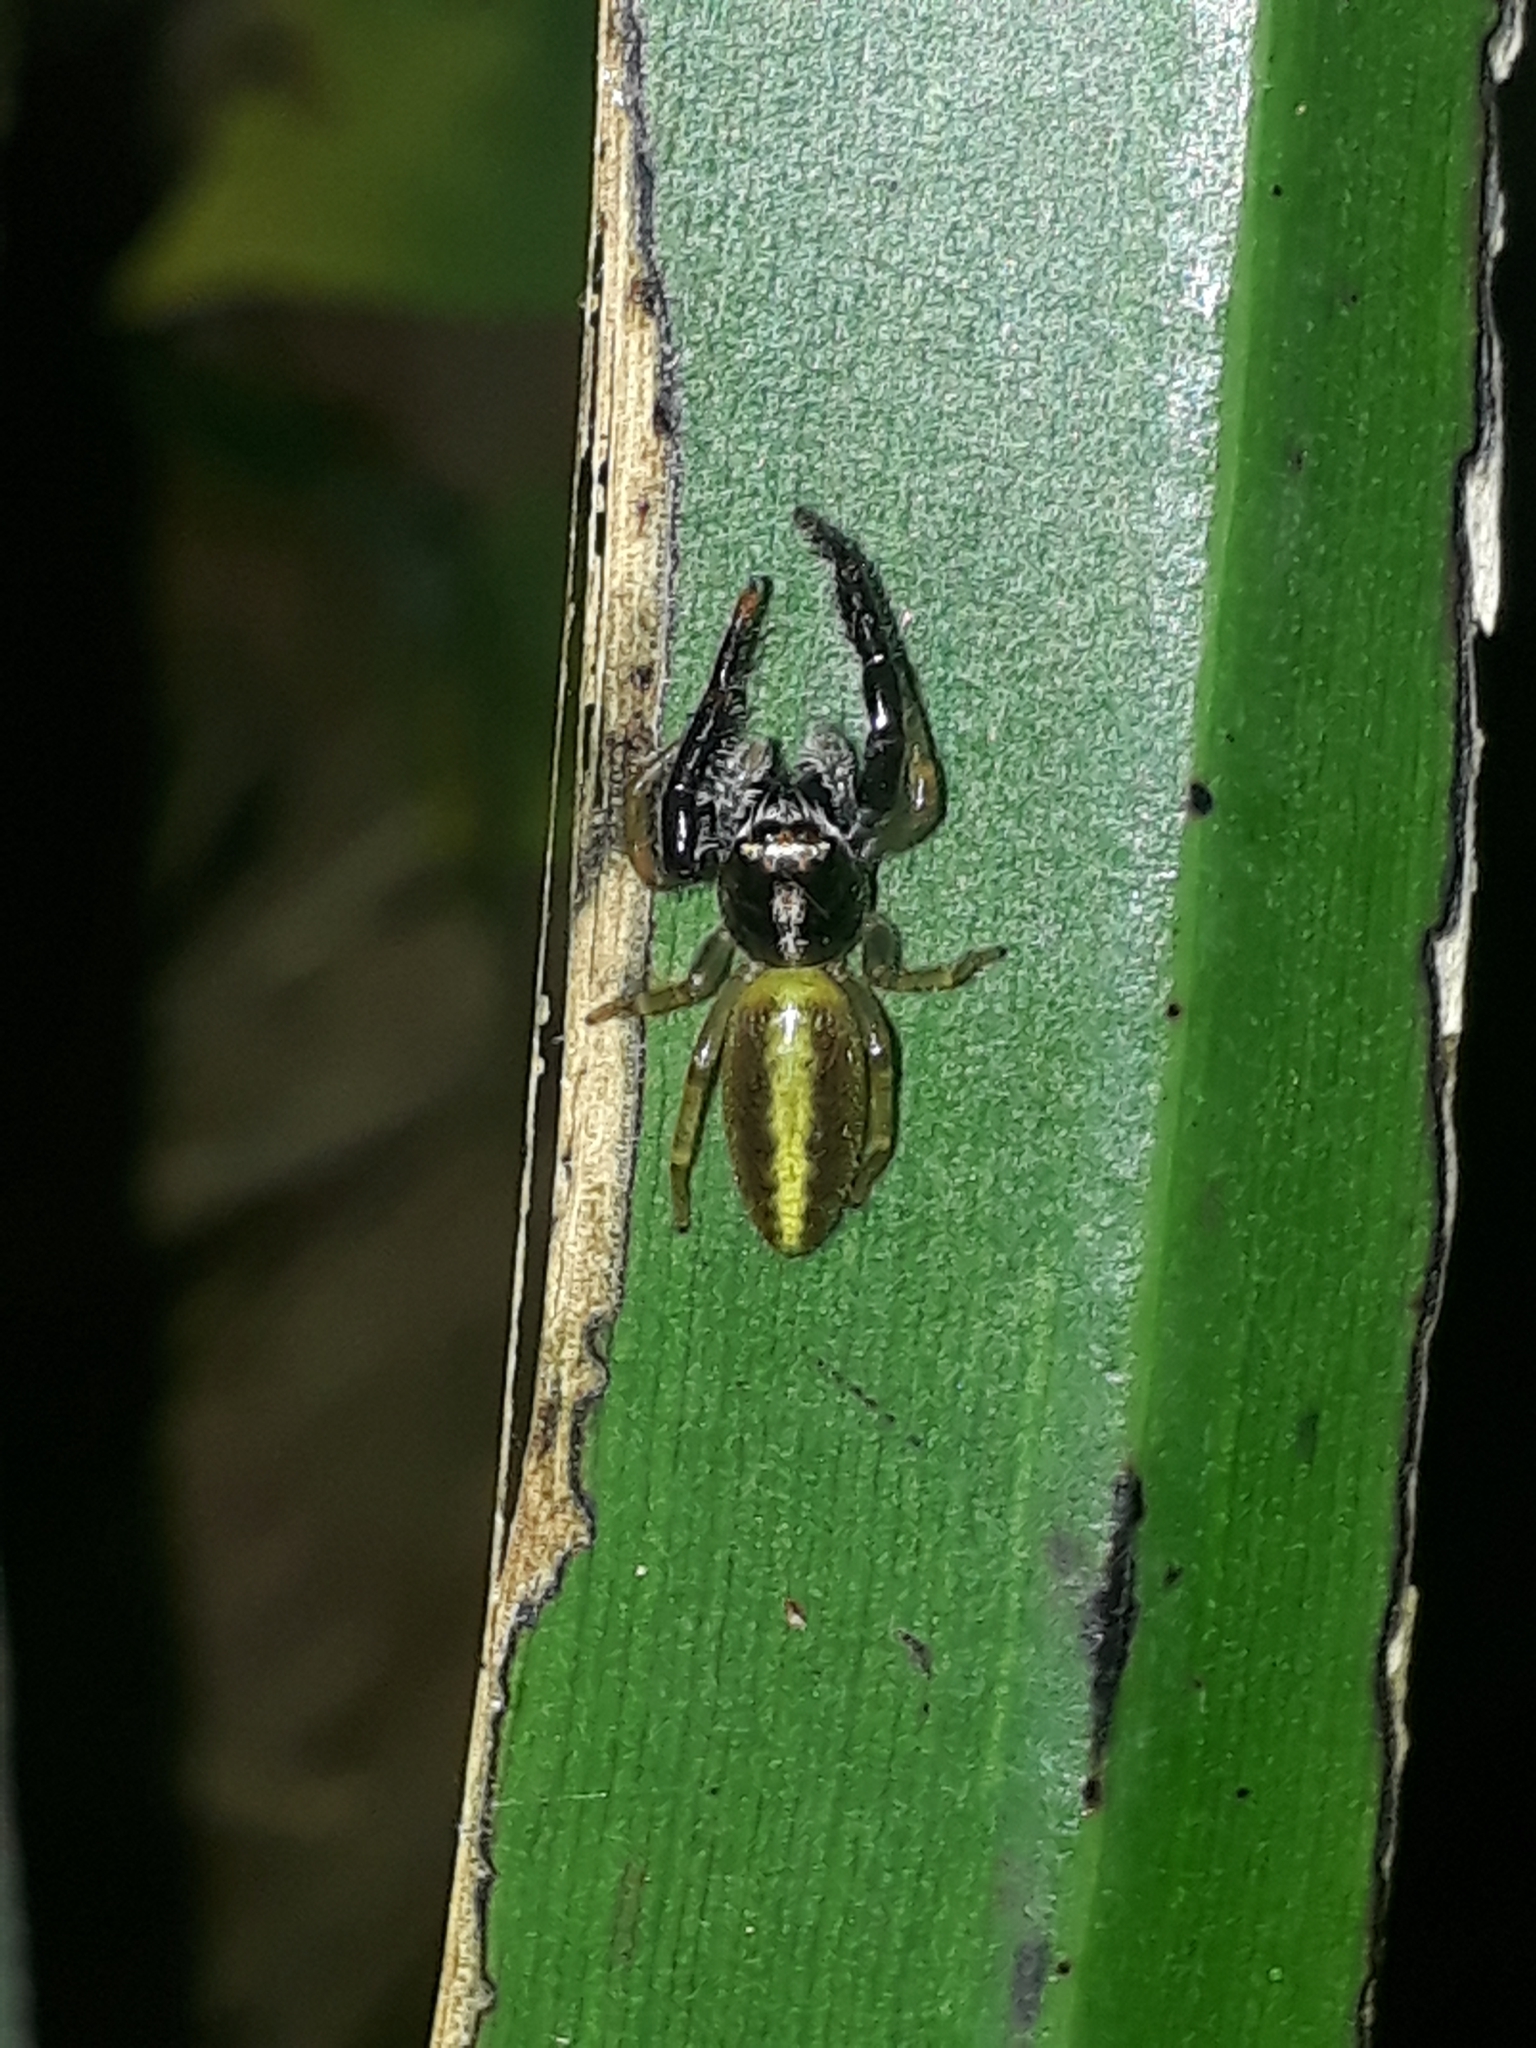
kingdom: Animalia
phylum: Arthropoda
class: Arachnida
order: Araneae
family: Salticidae
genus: Trite
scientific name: Trite planiceps
